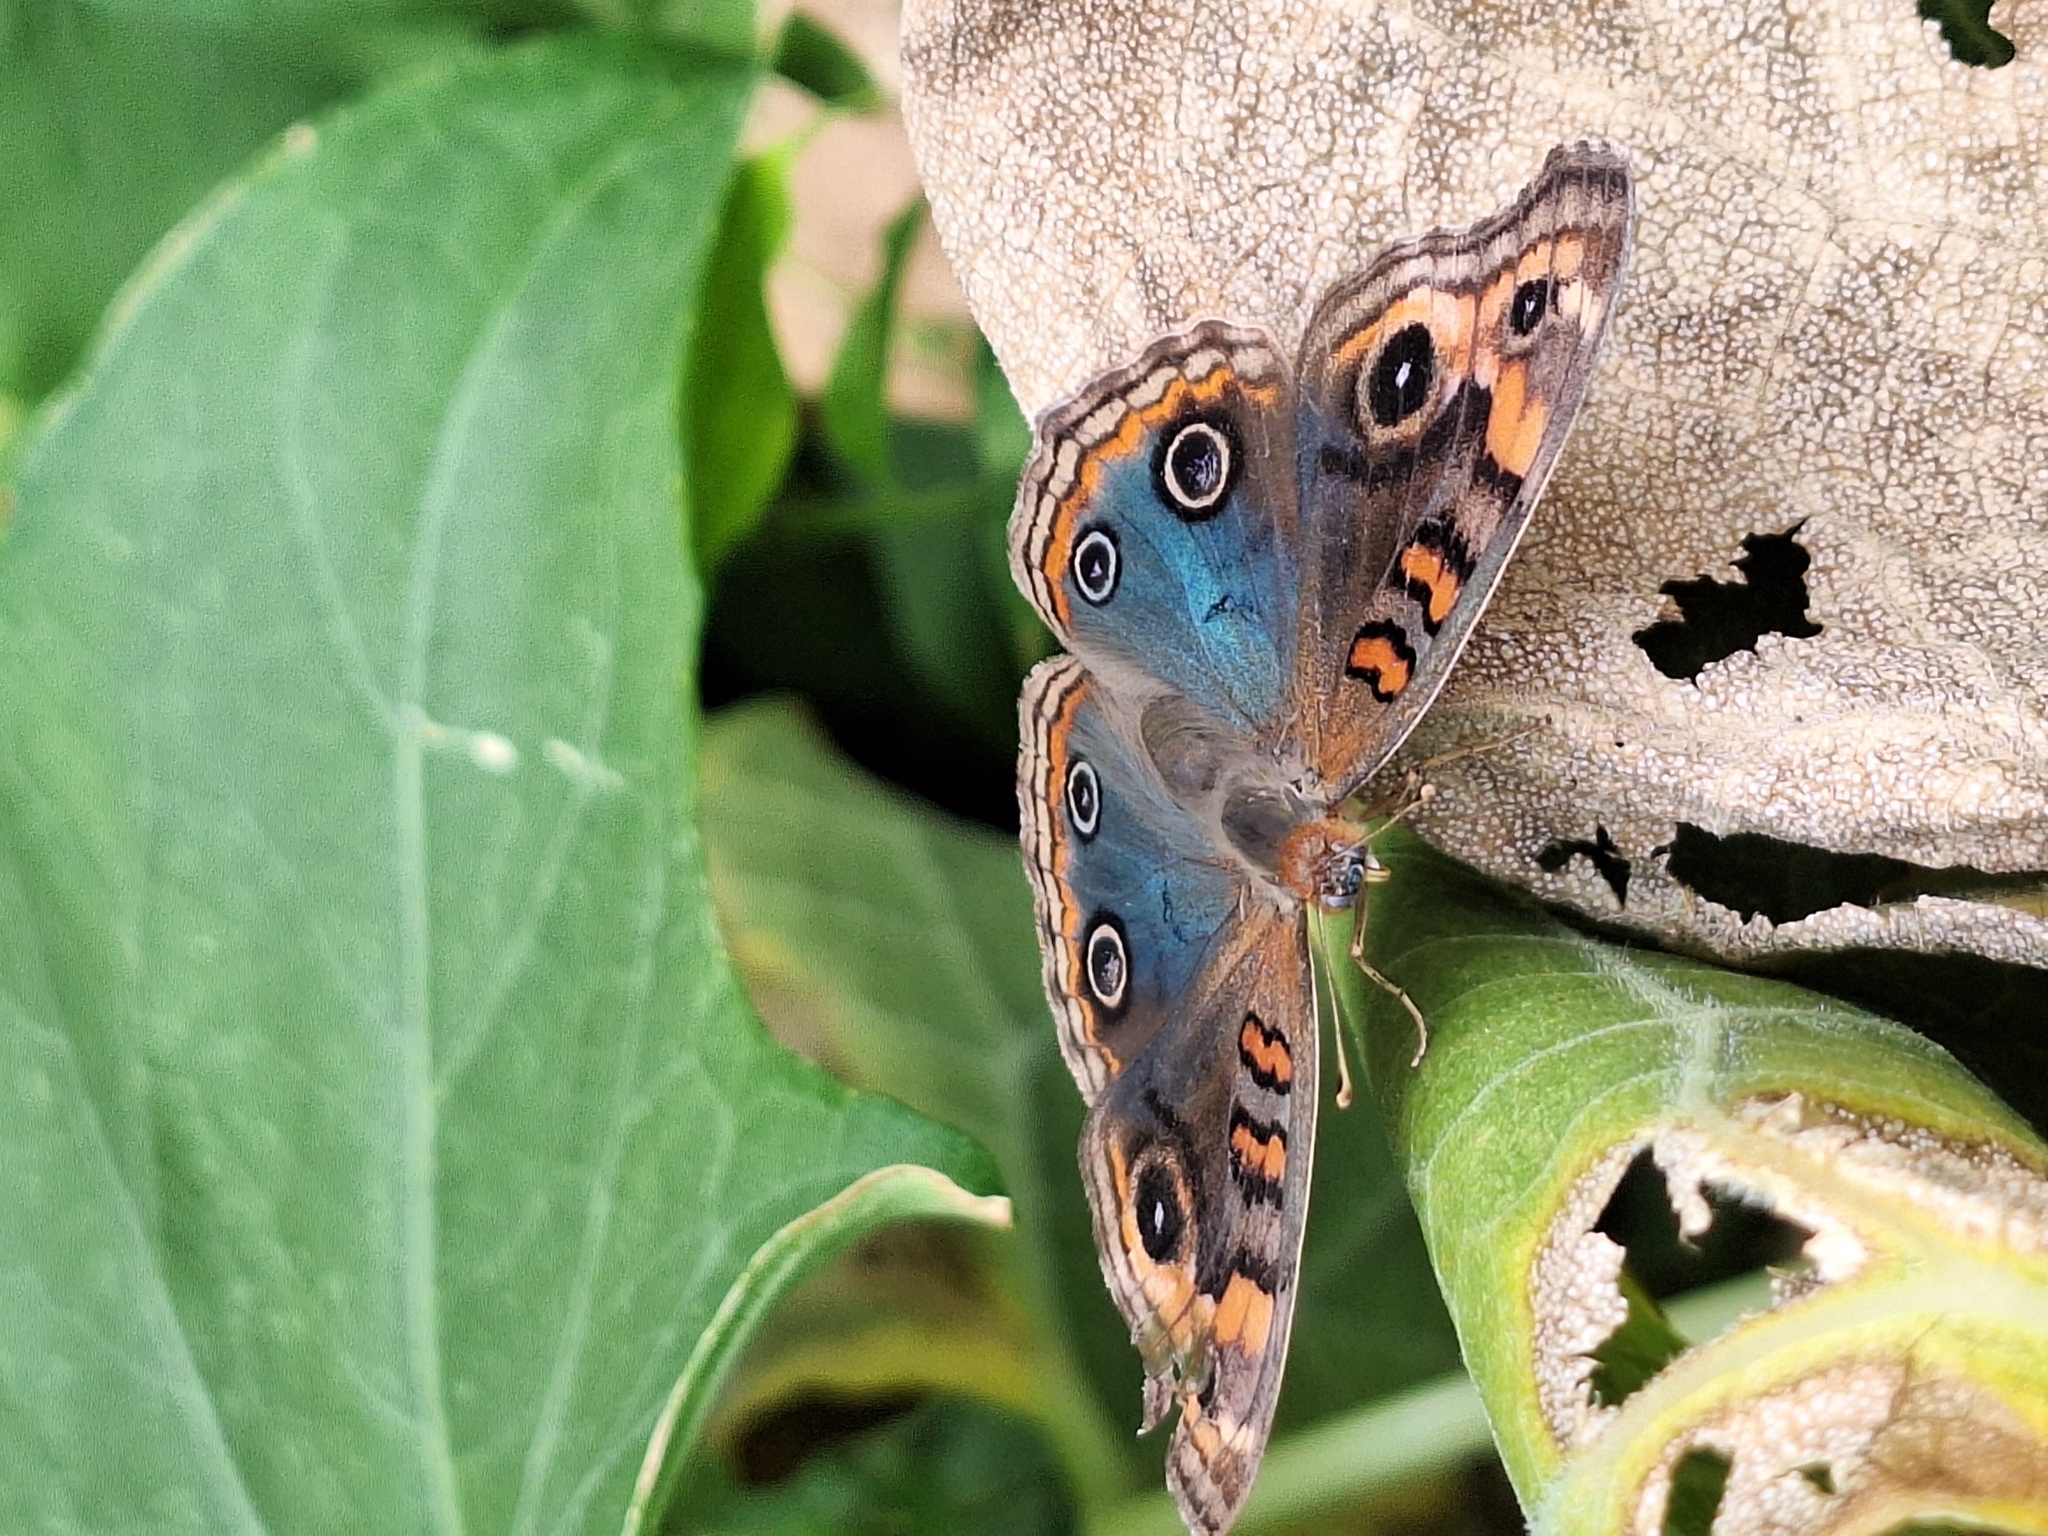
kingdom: Animalia
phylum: Arthropoda
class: Insecta
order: Lepidoptera
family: Nymphalidae
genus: Junonia
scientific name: Junonia lavinia
